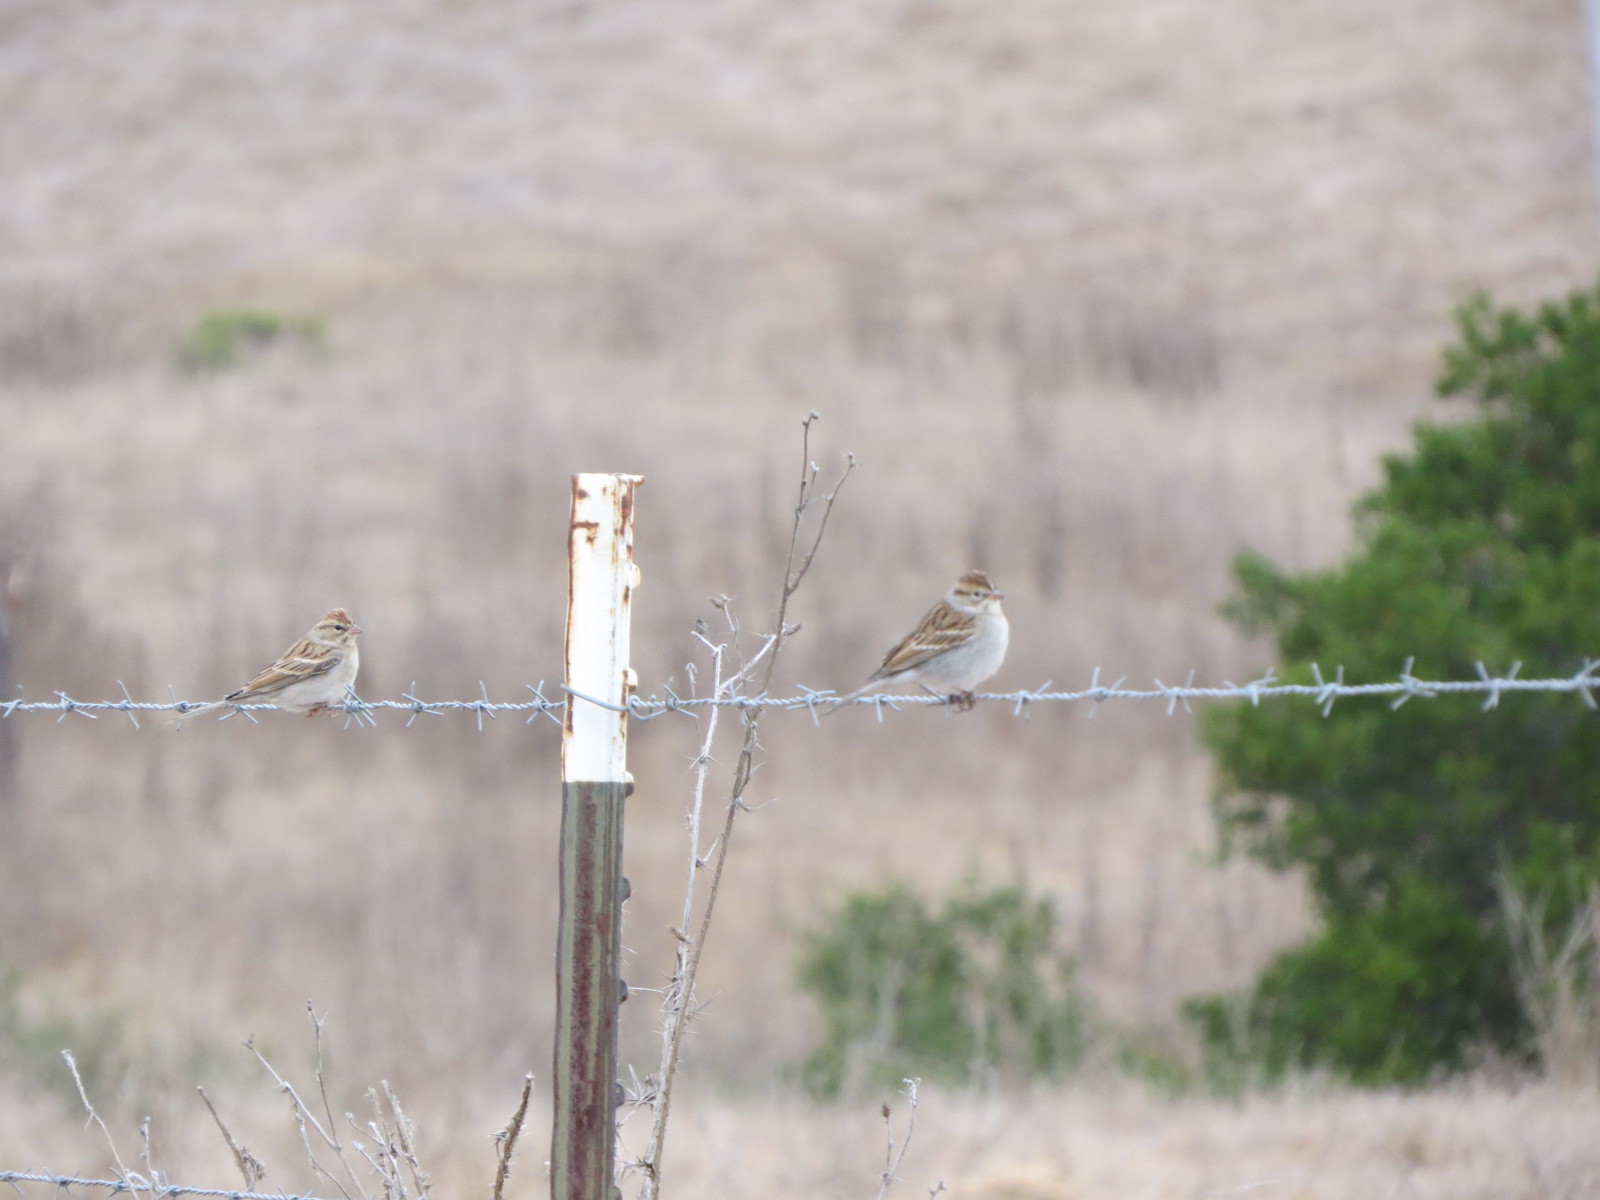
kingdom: Animalia
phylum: Chordata
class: Aves
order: Passeriformes
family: Passerellidae
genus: Spizella
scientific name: Spizella passerina
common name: Chipping sparrow
